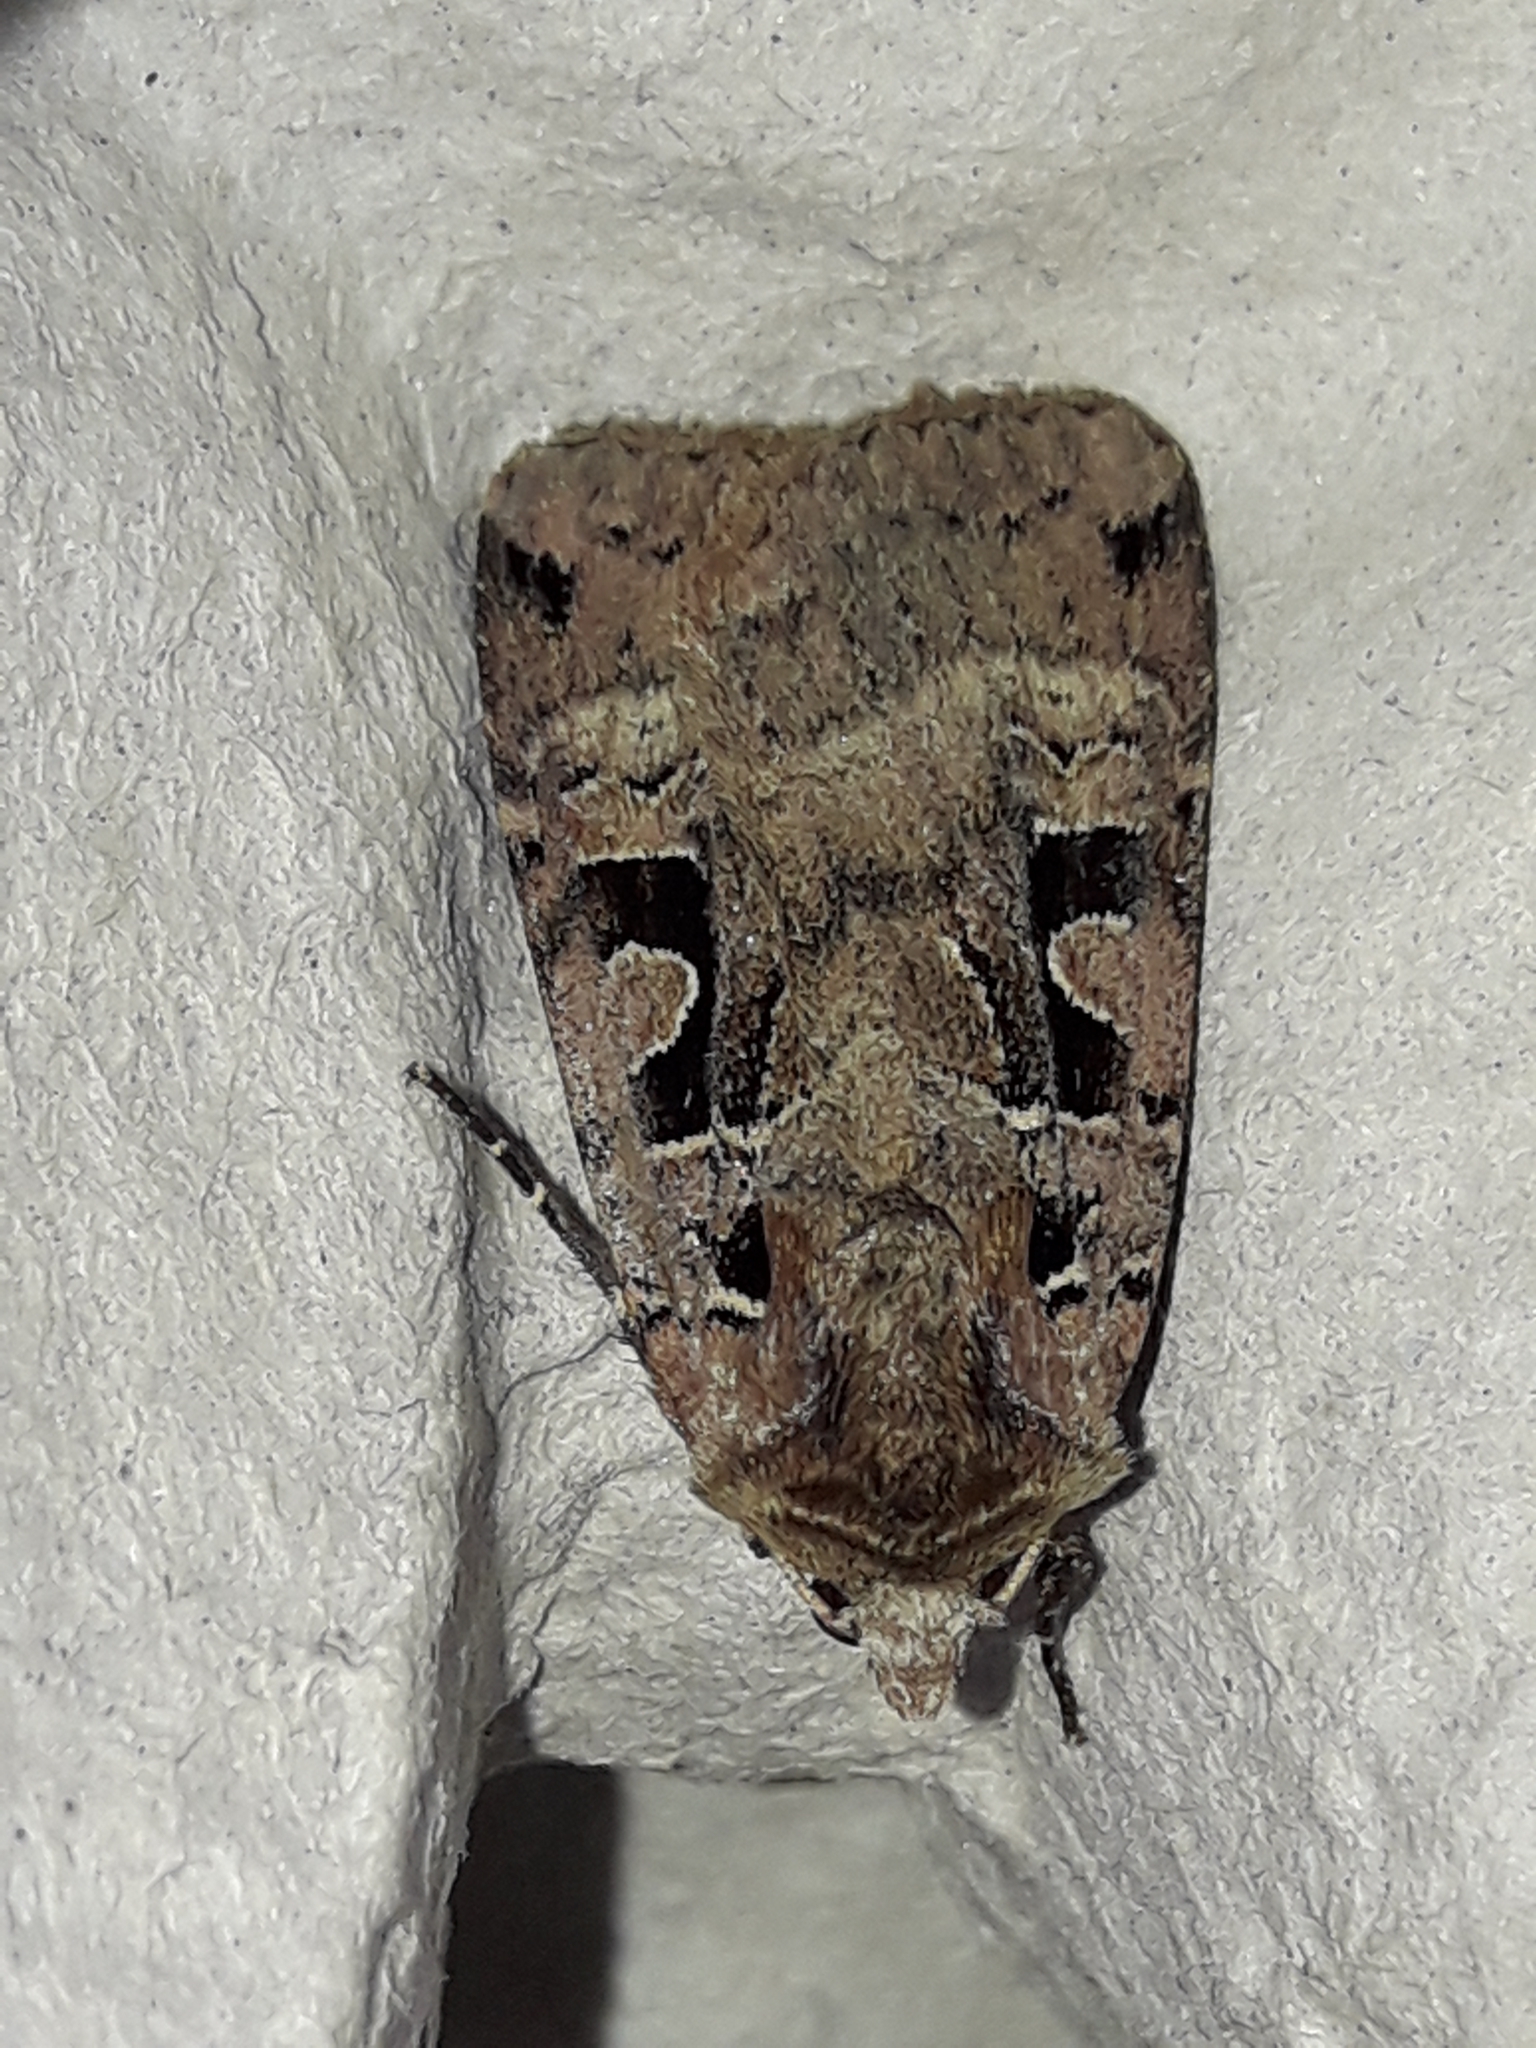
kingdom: Animalia
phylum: Arthropoda
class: Insecta
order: Lepidoptera
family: Noctuidae
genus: Xestia
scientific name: Xestia triangulum
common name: Double square-spot
